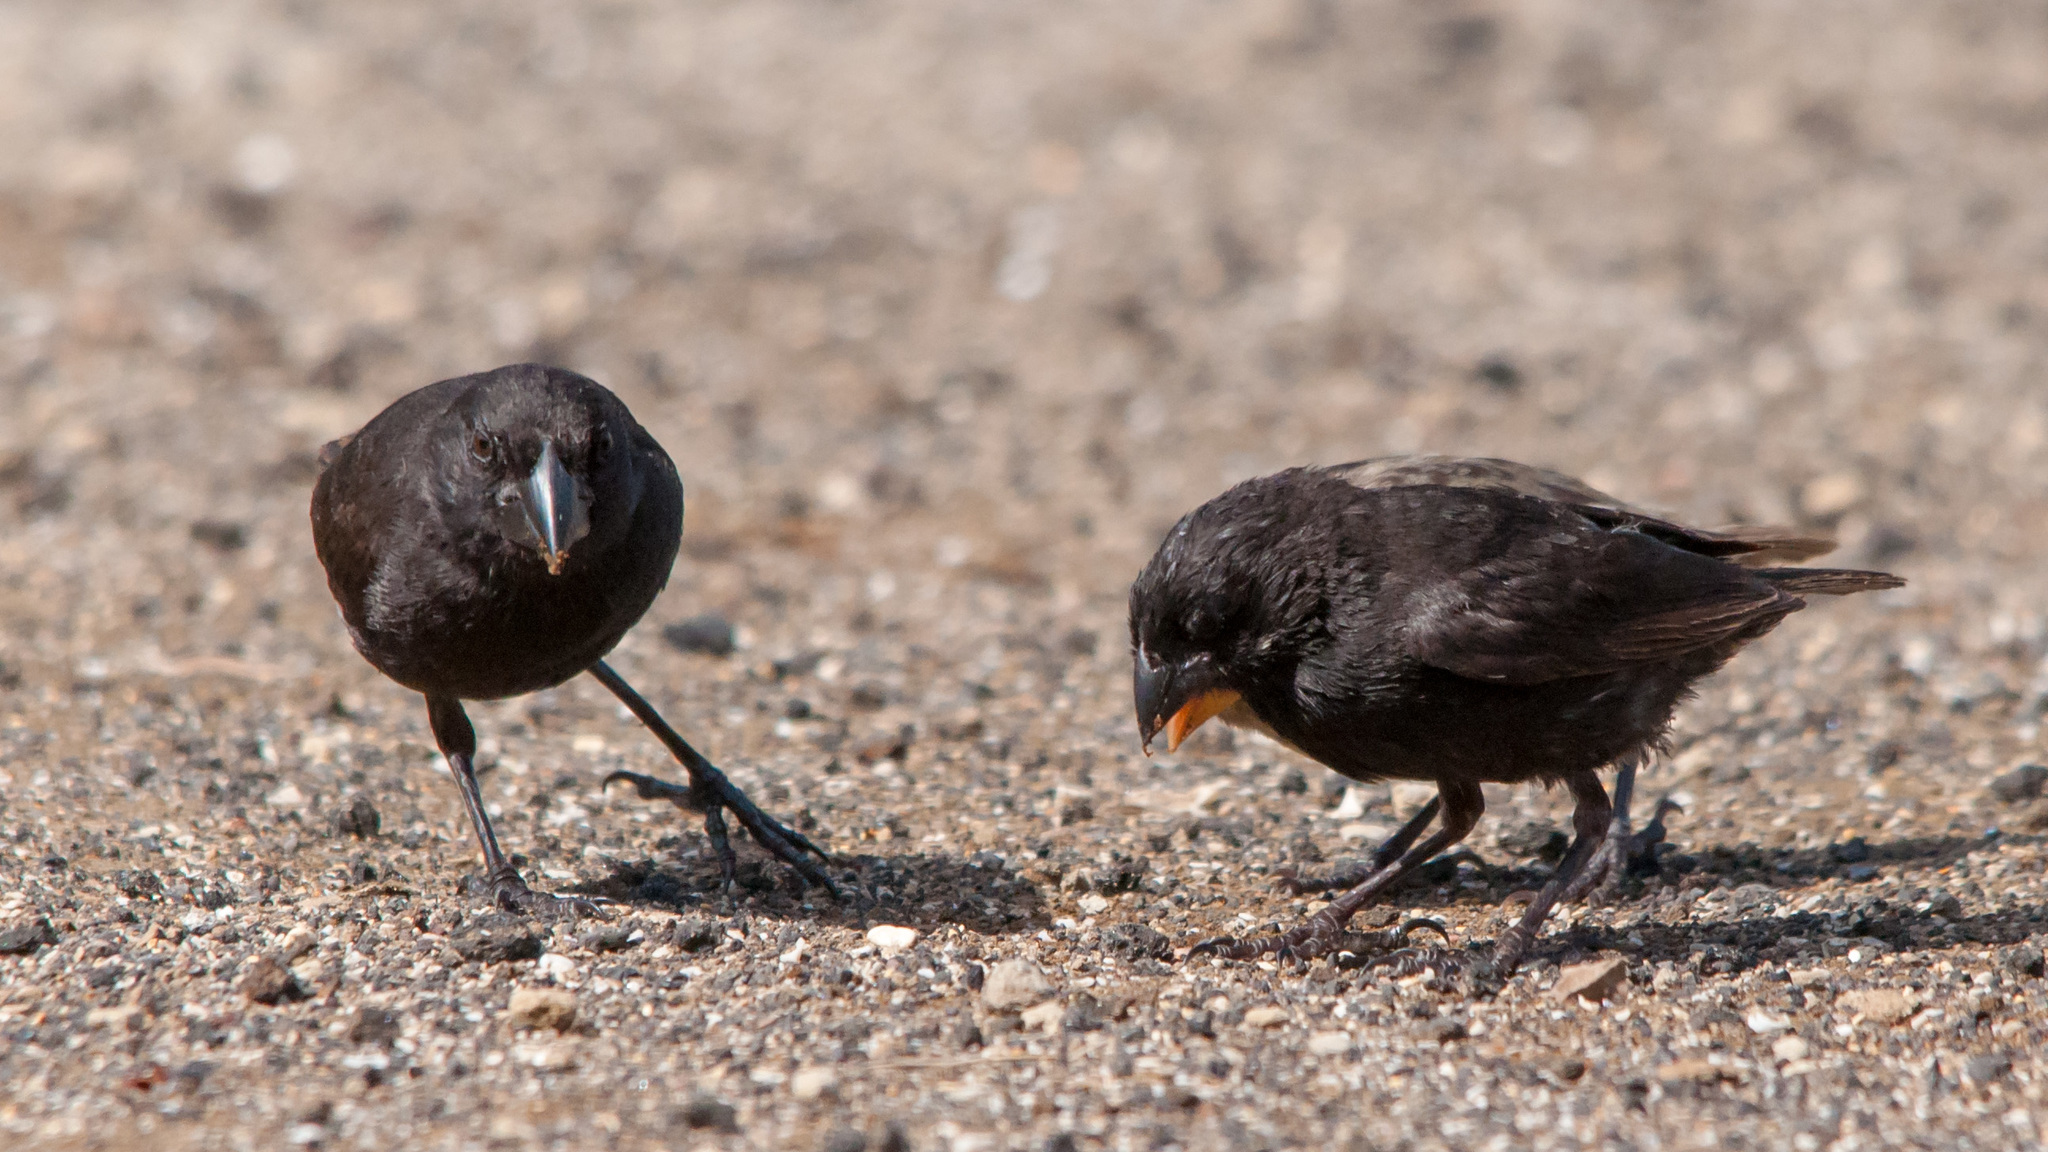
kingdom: Animalia
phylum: Chordata
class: Aves
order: Passeriformes
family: Thraupidae
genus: Geospiza
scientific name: Geospiza fortis
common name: Medium ground finch
